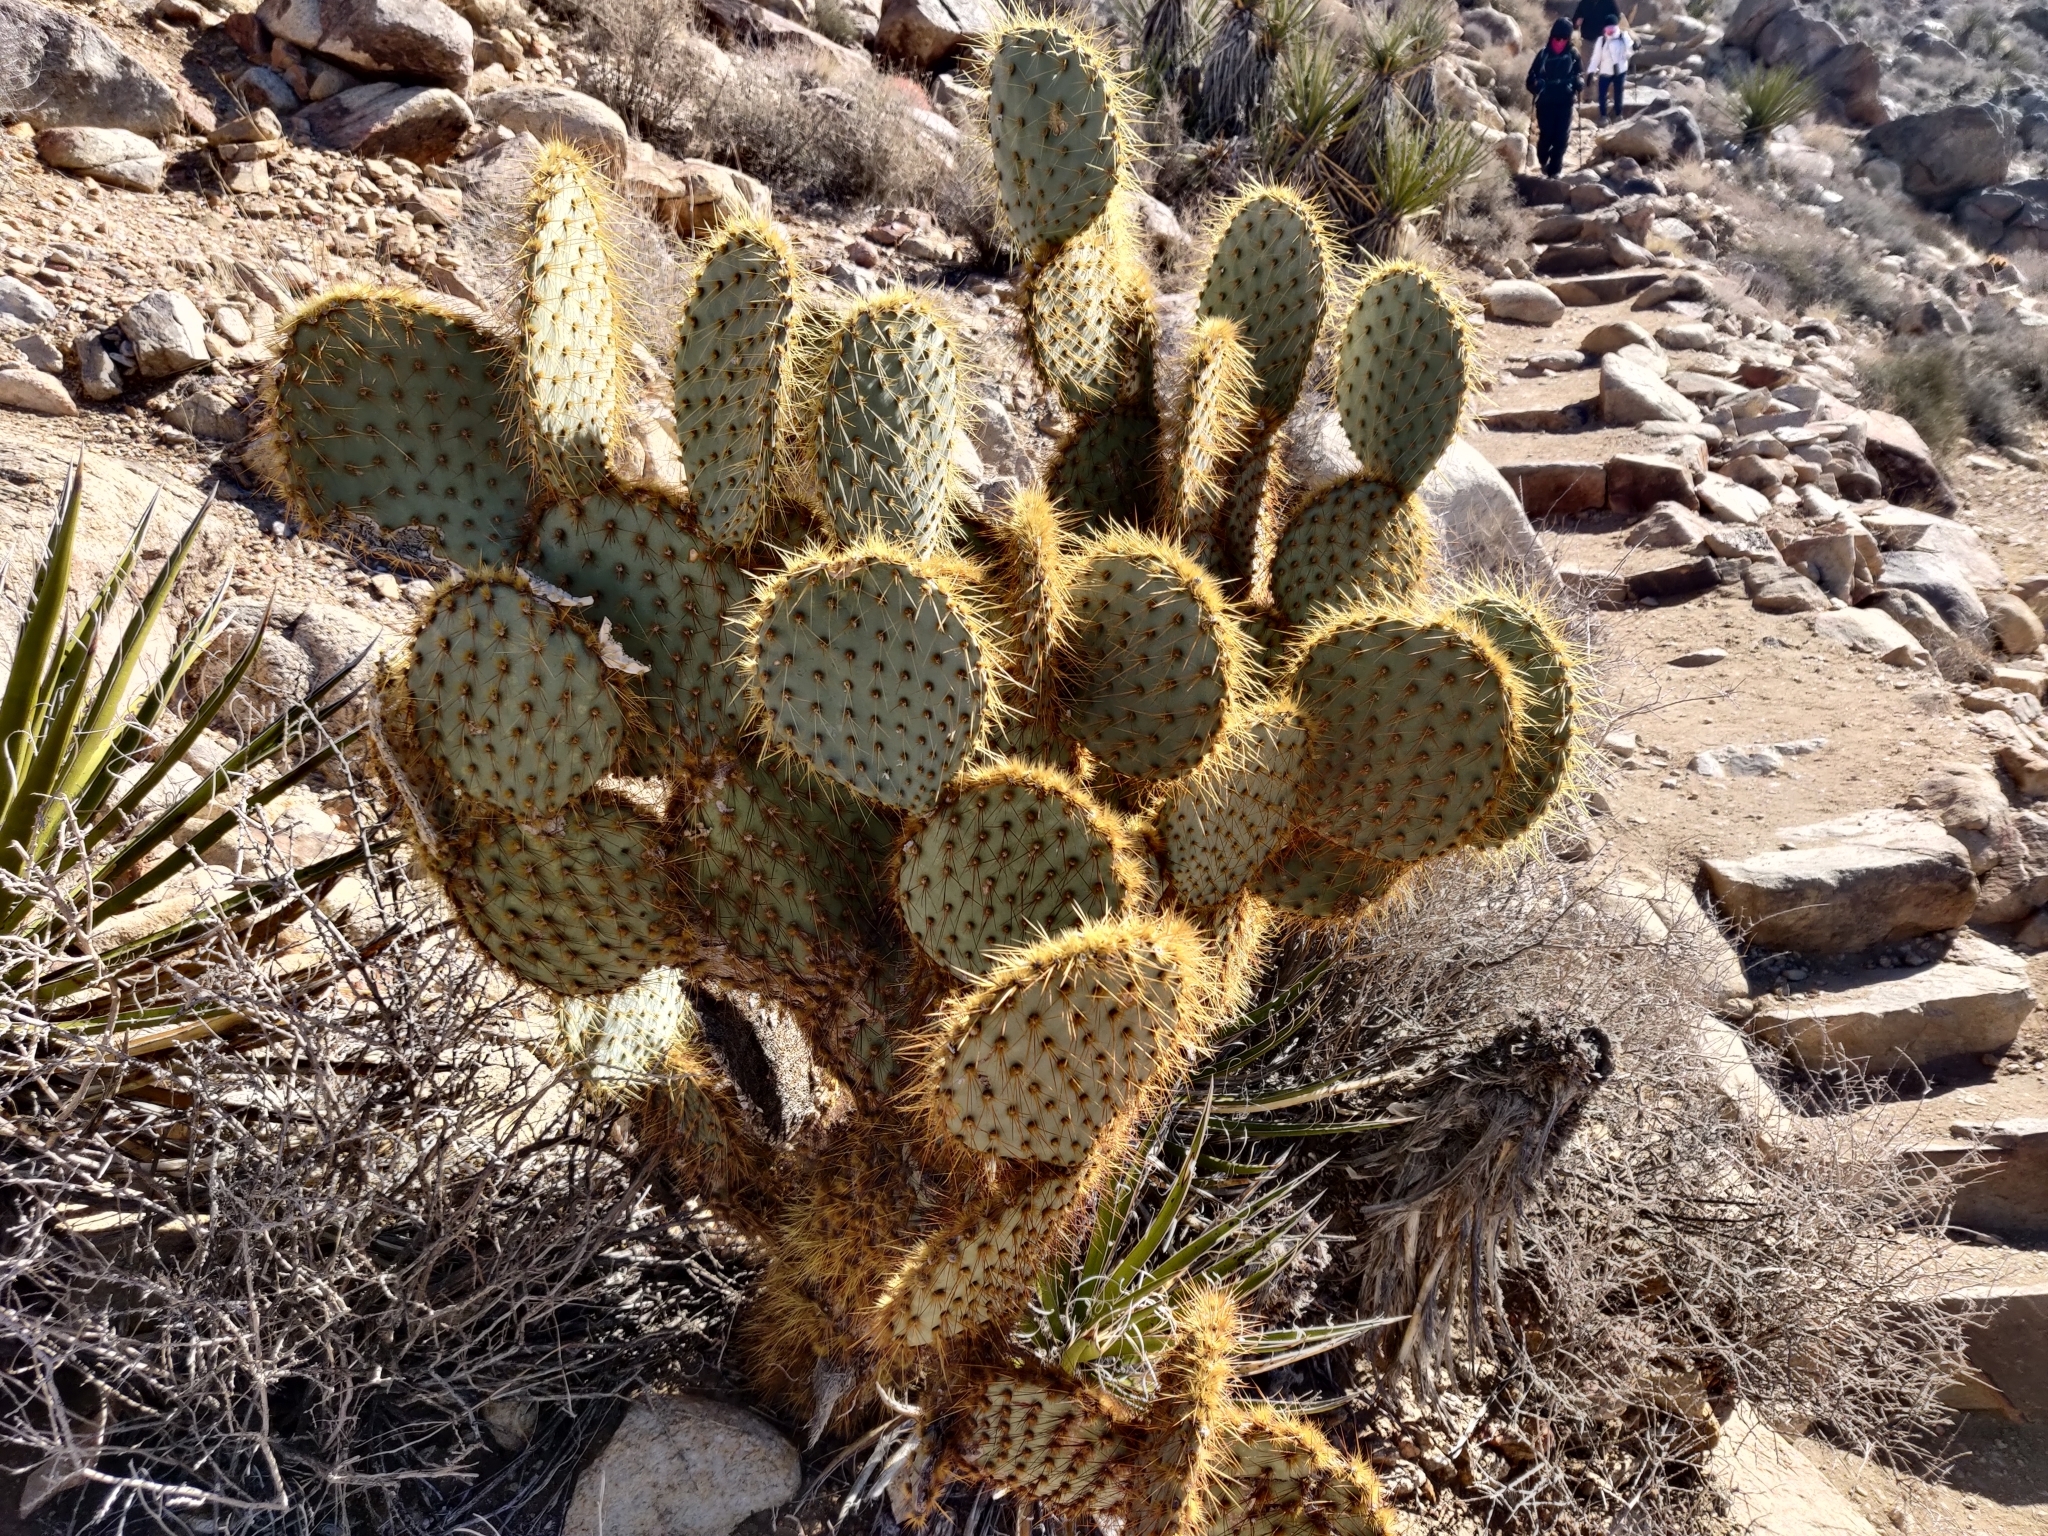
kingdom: Plantae
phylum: Tracheophyta
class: Magnoliopsida
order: Caryophyllales
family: Cactaceae
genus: Opuntia
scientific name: Opuntia chlorotica
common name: Dollar-joint prickly-pear
